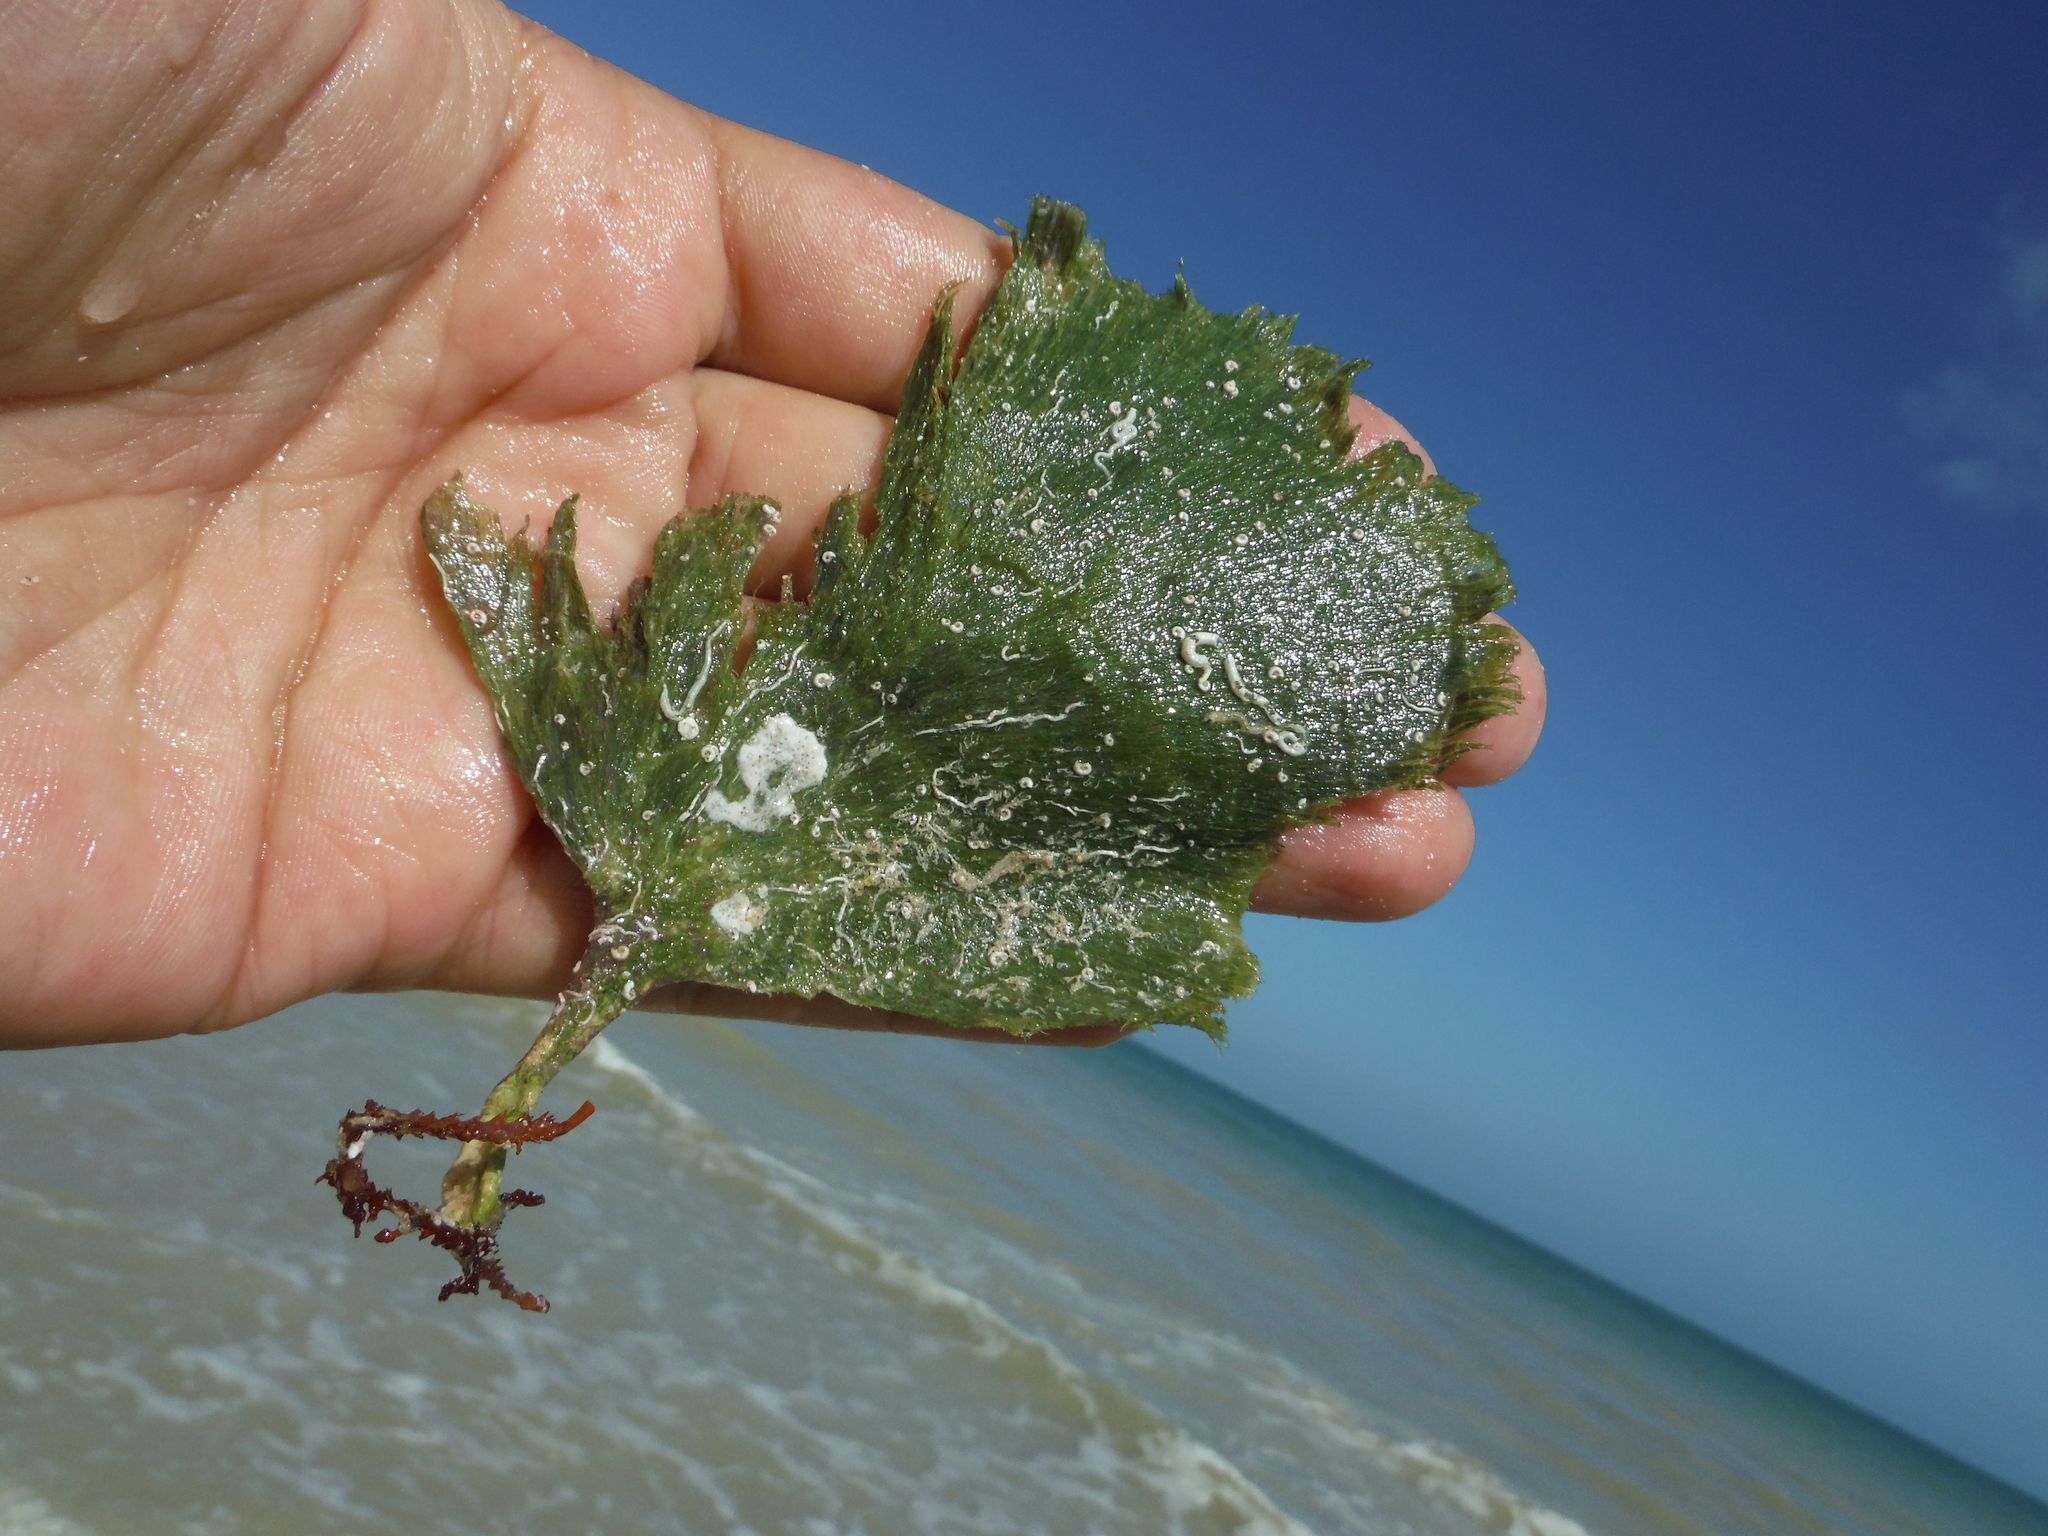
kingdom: Plantae
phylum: Chlorophyta
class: Ulvophyceae
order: Bryopsidales
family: Codiaceae
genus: Codium
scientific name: Codium Flabellia petiolata
